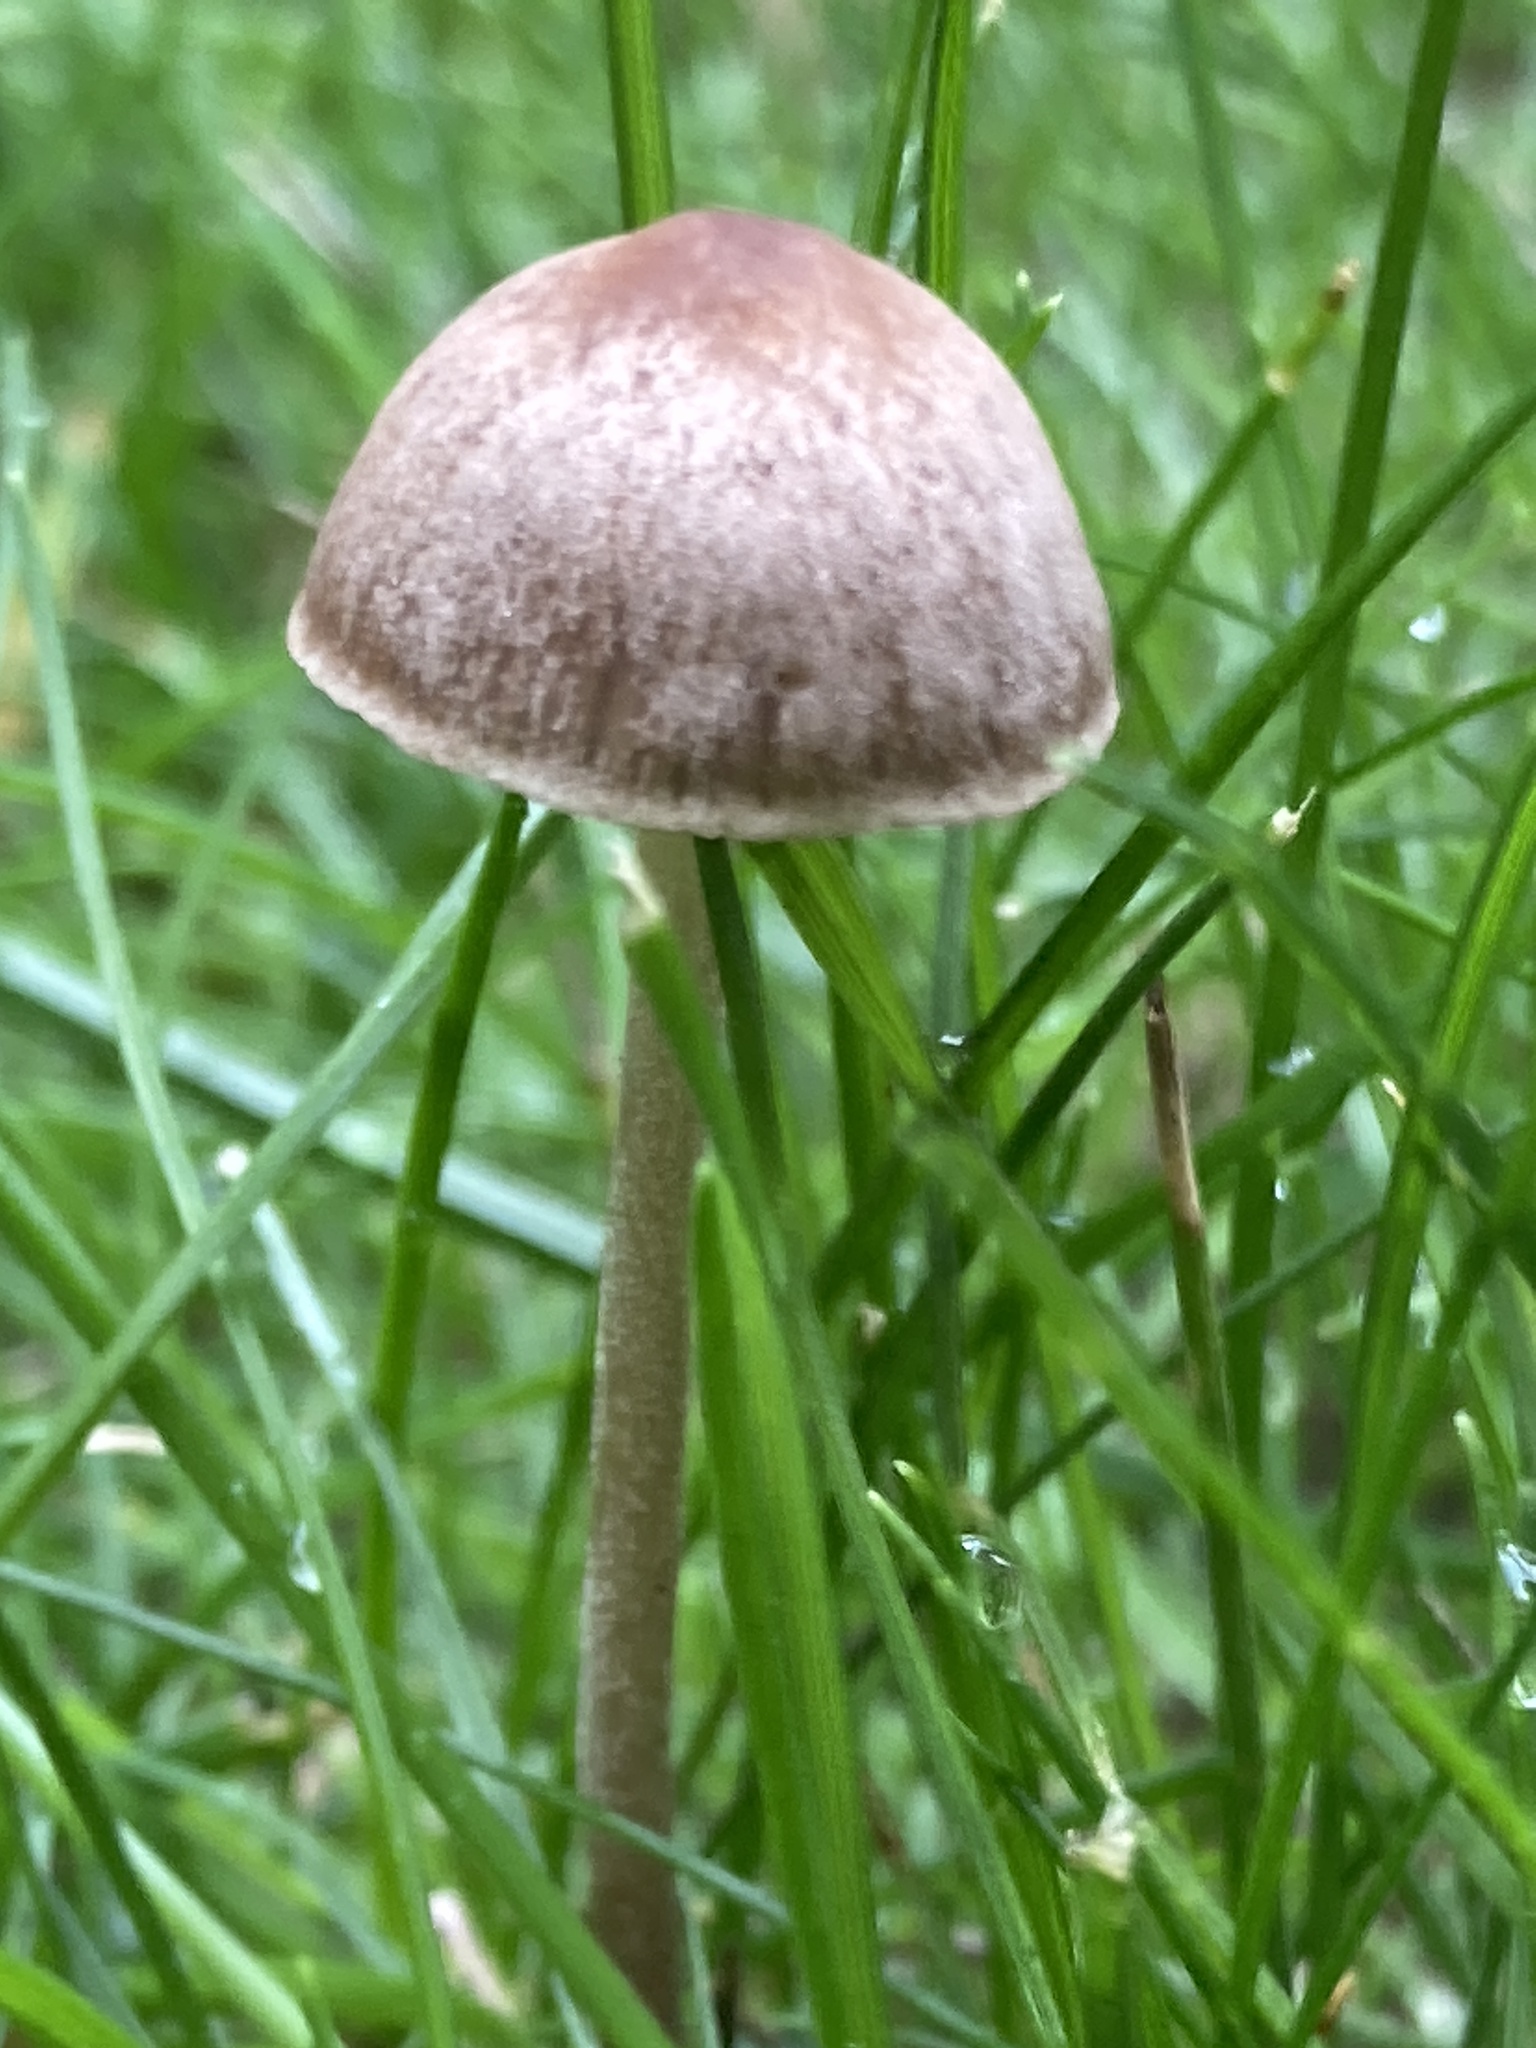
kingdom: Fungi
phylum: Basidiomycota
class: Agaricomycetes
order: Agaricales
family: Bolbitiaceae
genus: Panaeolina
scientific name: Panaeolina foenisecii
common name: Brown hay cap
